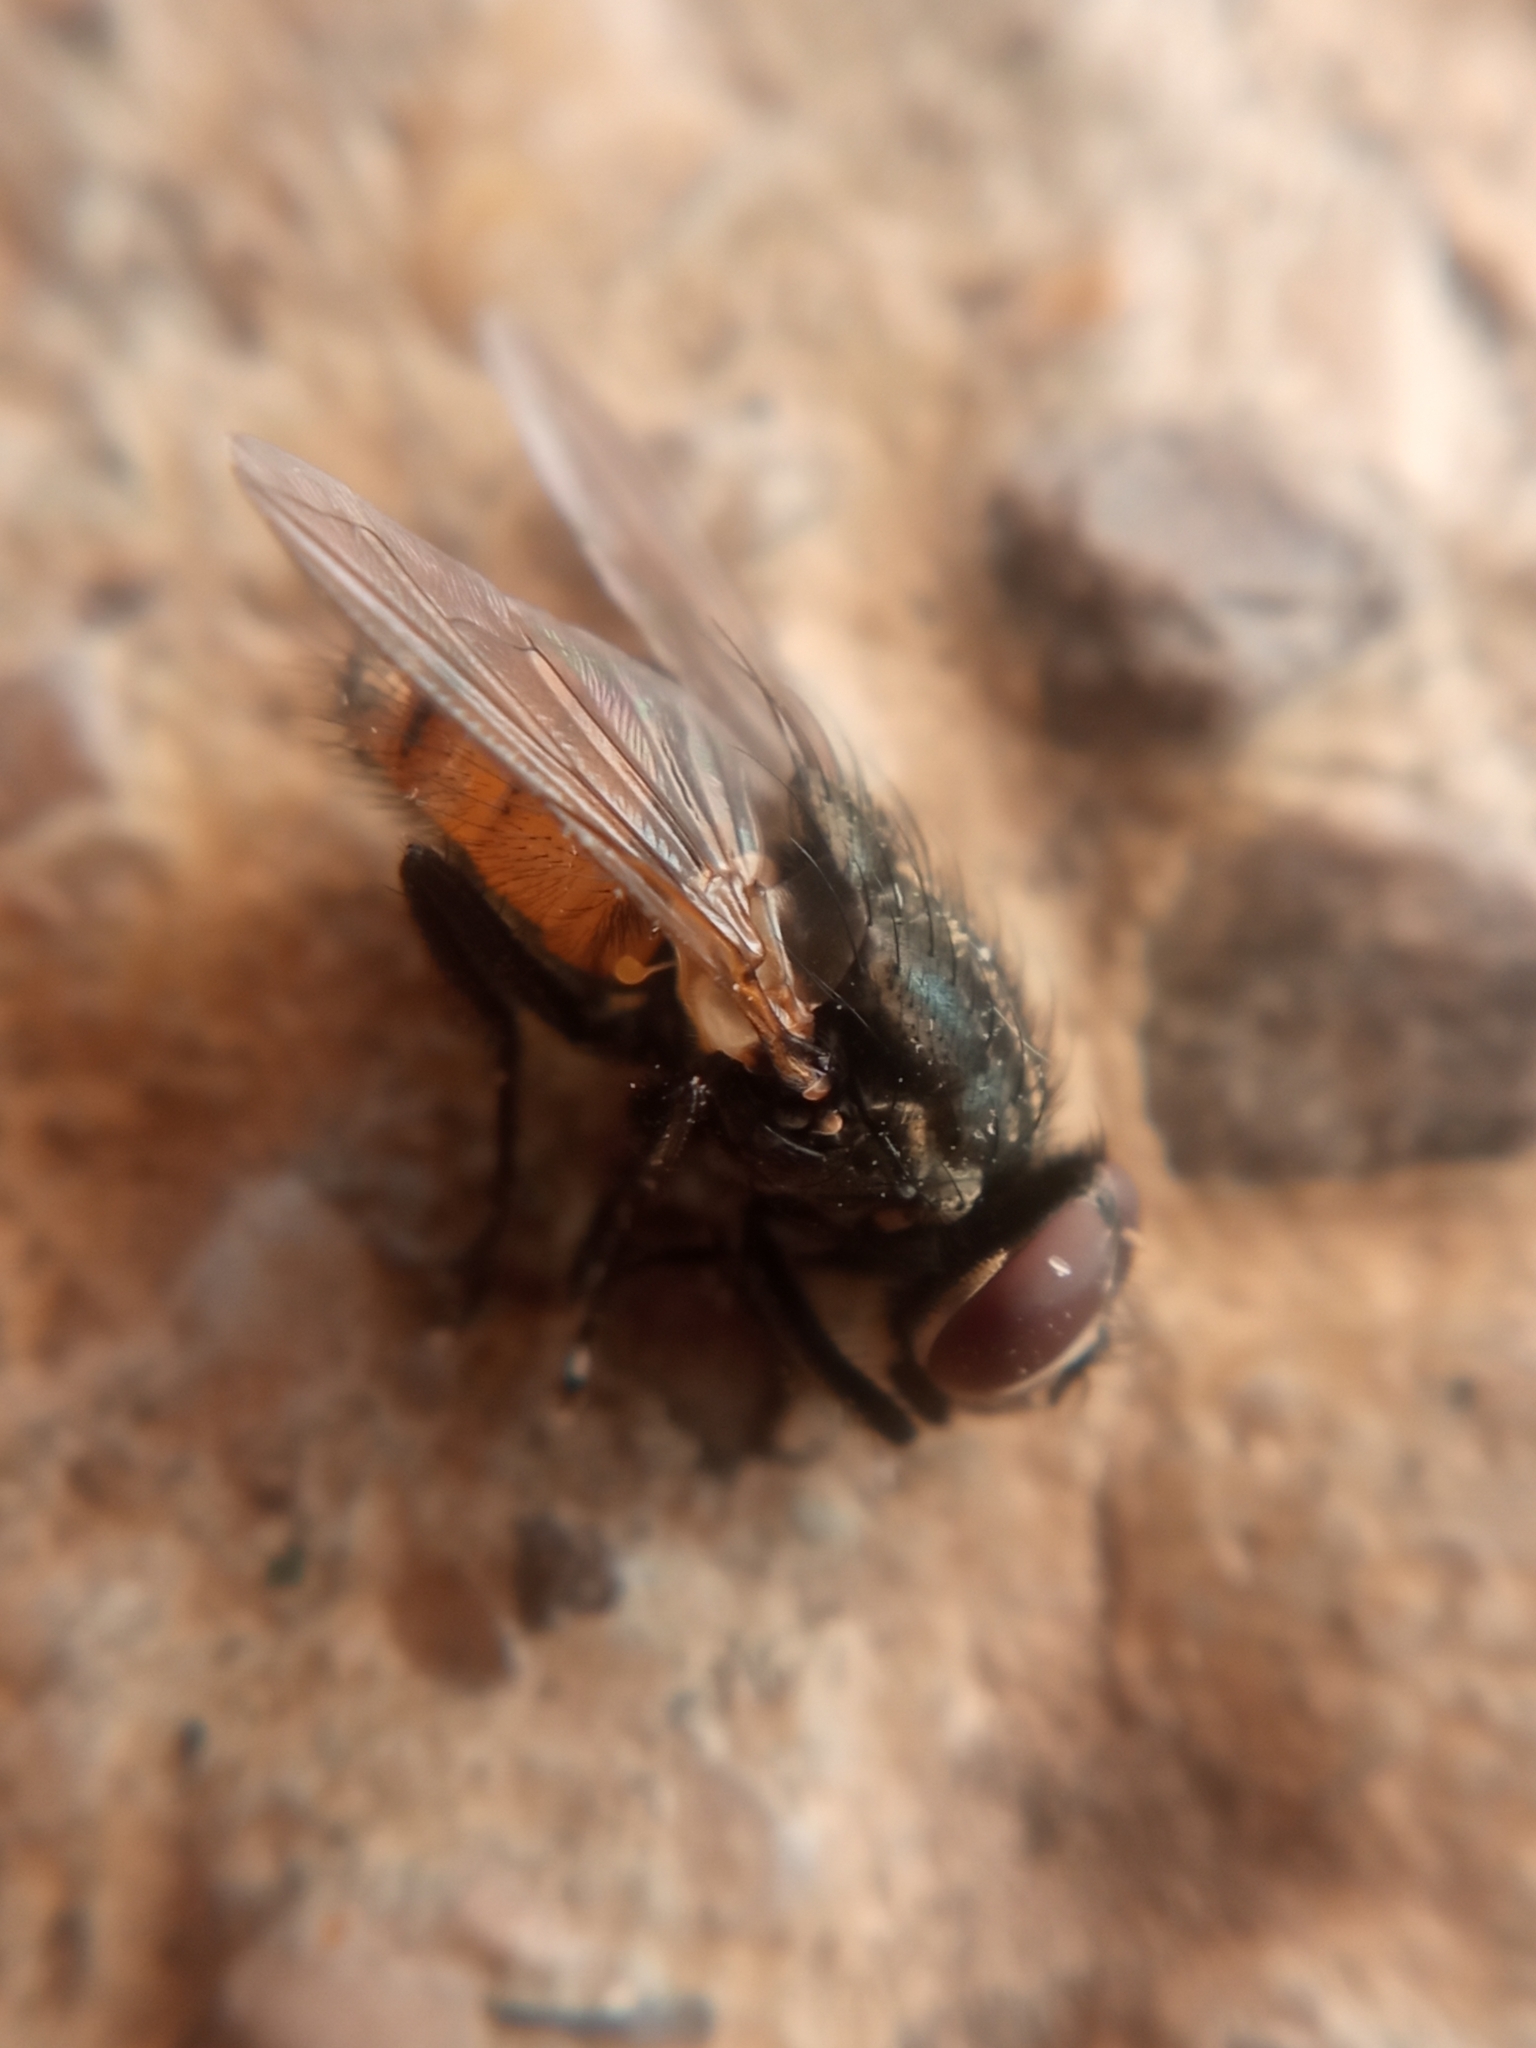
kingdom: Animalia
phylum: Arthropoda
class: Insecta
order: Diptera
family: Muscidae
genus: Musca
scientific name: Musca autumnalis
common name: Face fly
